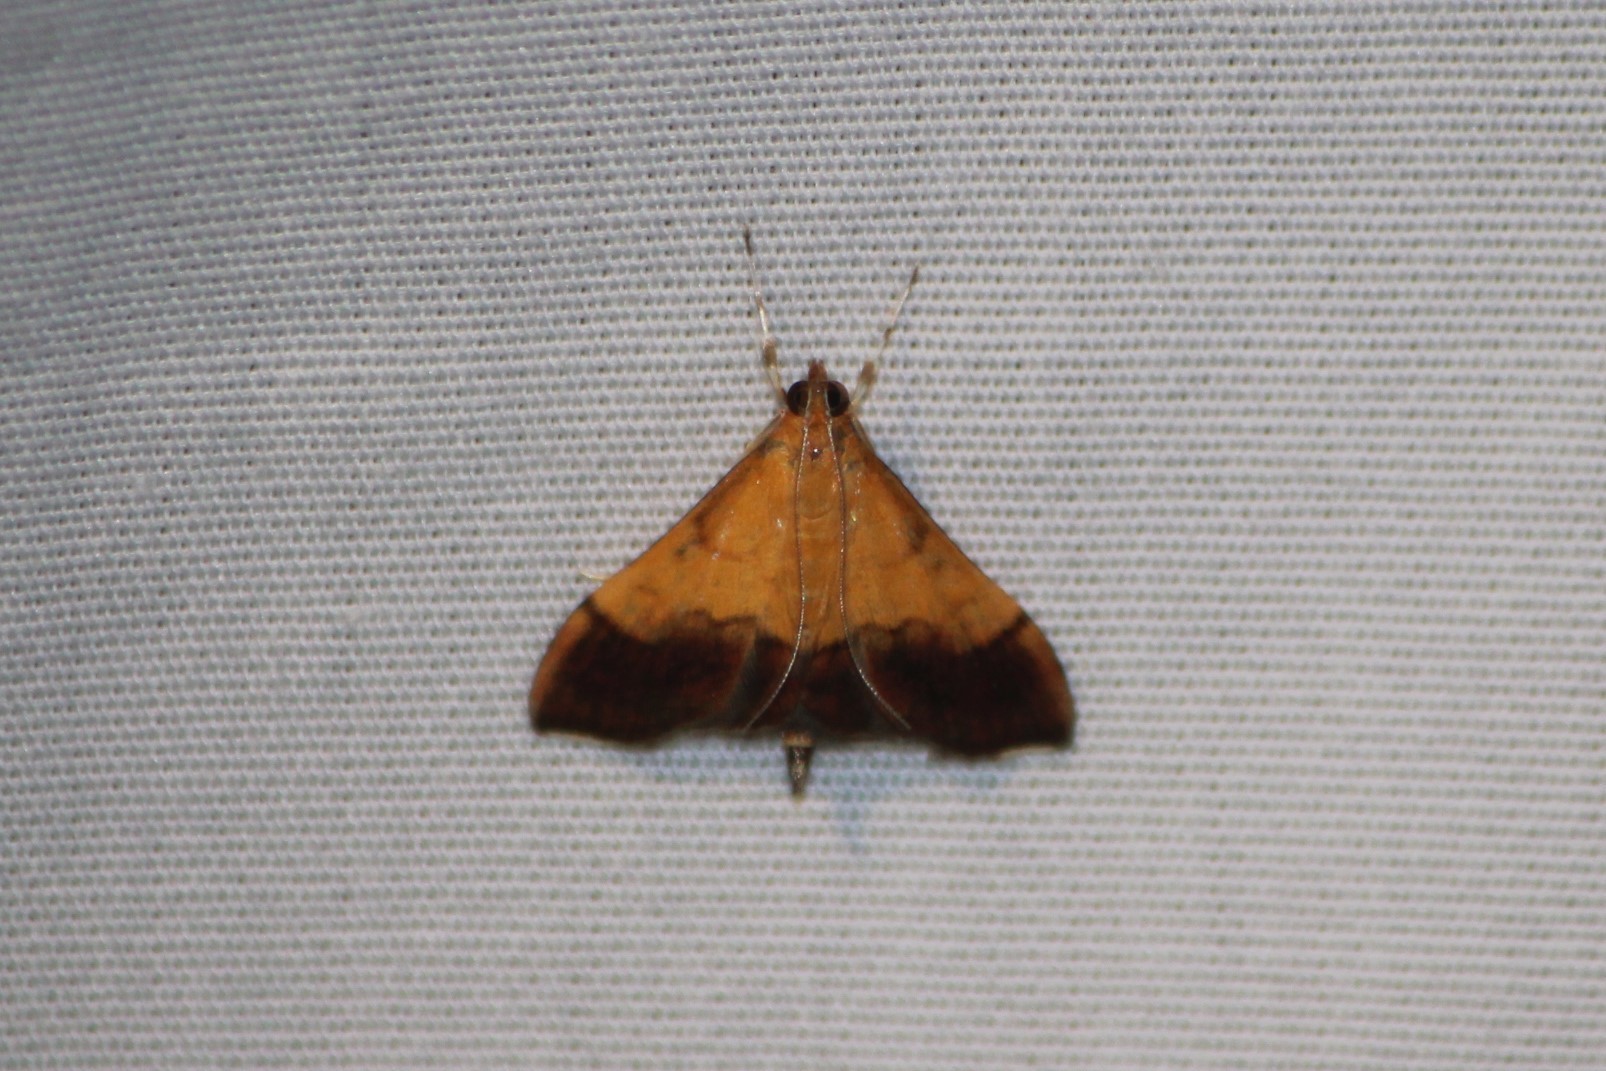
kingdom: Animalia
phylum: Arthropoda
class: Insecta
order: Lepidoptera
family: Crambidae
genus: Pyrausta
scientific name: Pyrausta bicoloralis
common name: Bicolored pyrausta moth
